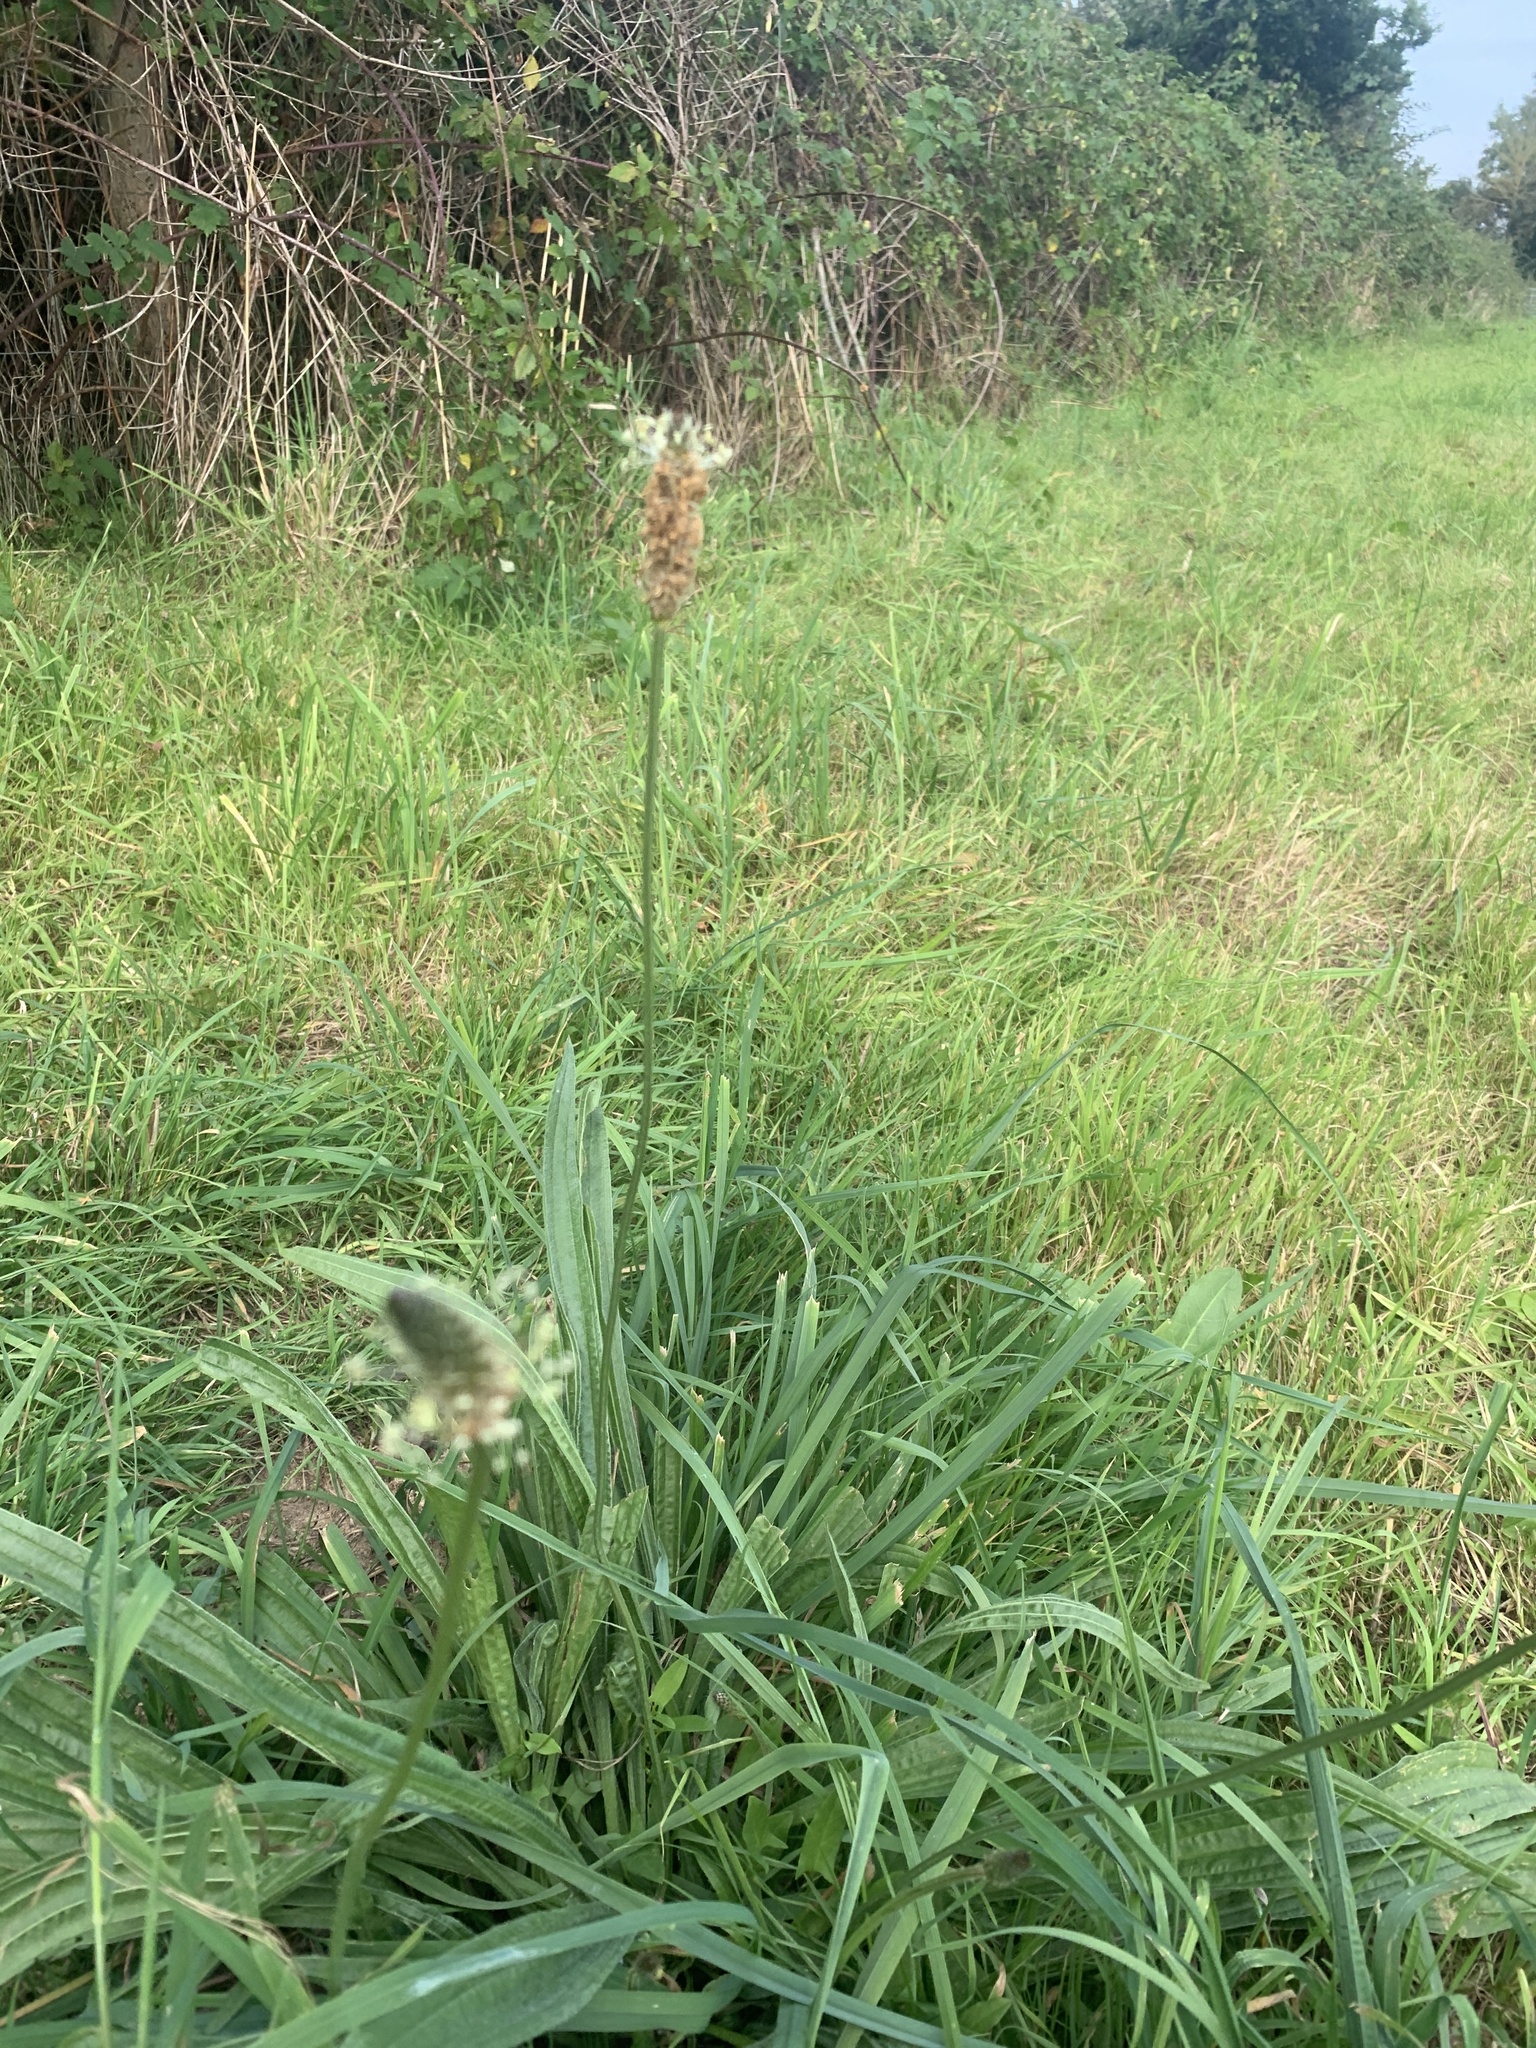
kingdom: Plantae
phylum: Tracheophyta
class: Magnoliopsida
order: Lamiales
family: Plantaginaceae
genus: Plantago
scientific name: Plantago lanceolata
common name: Ribwort plantain
